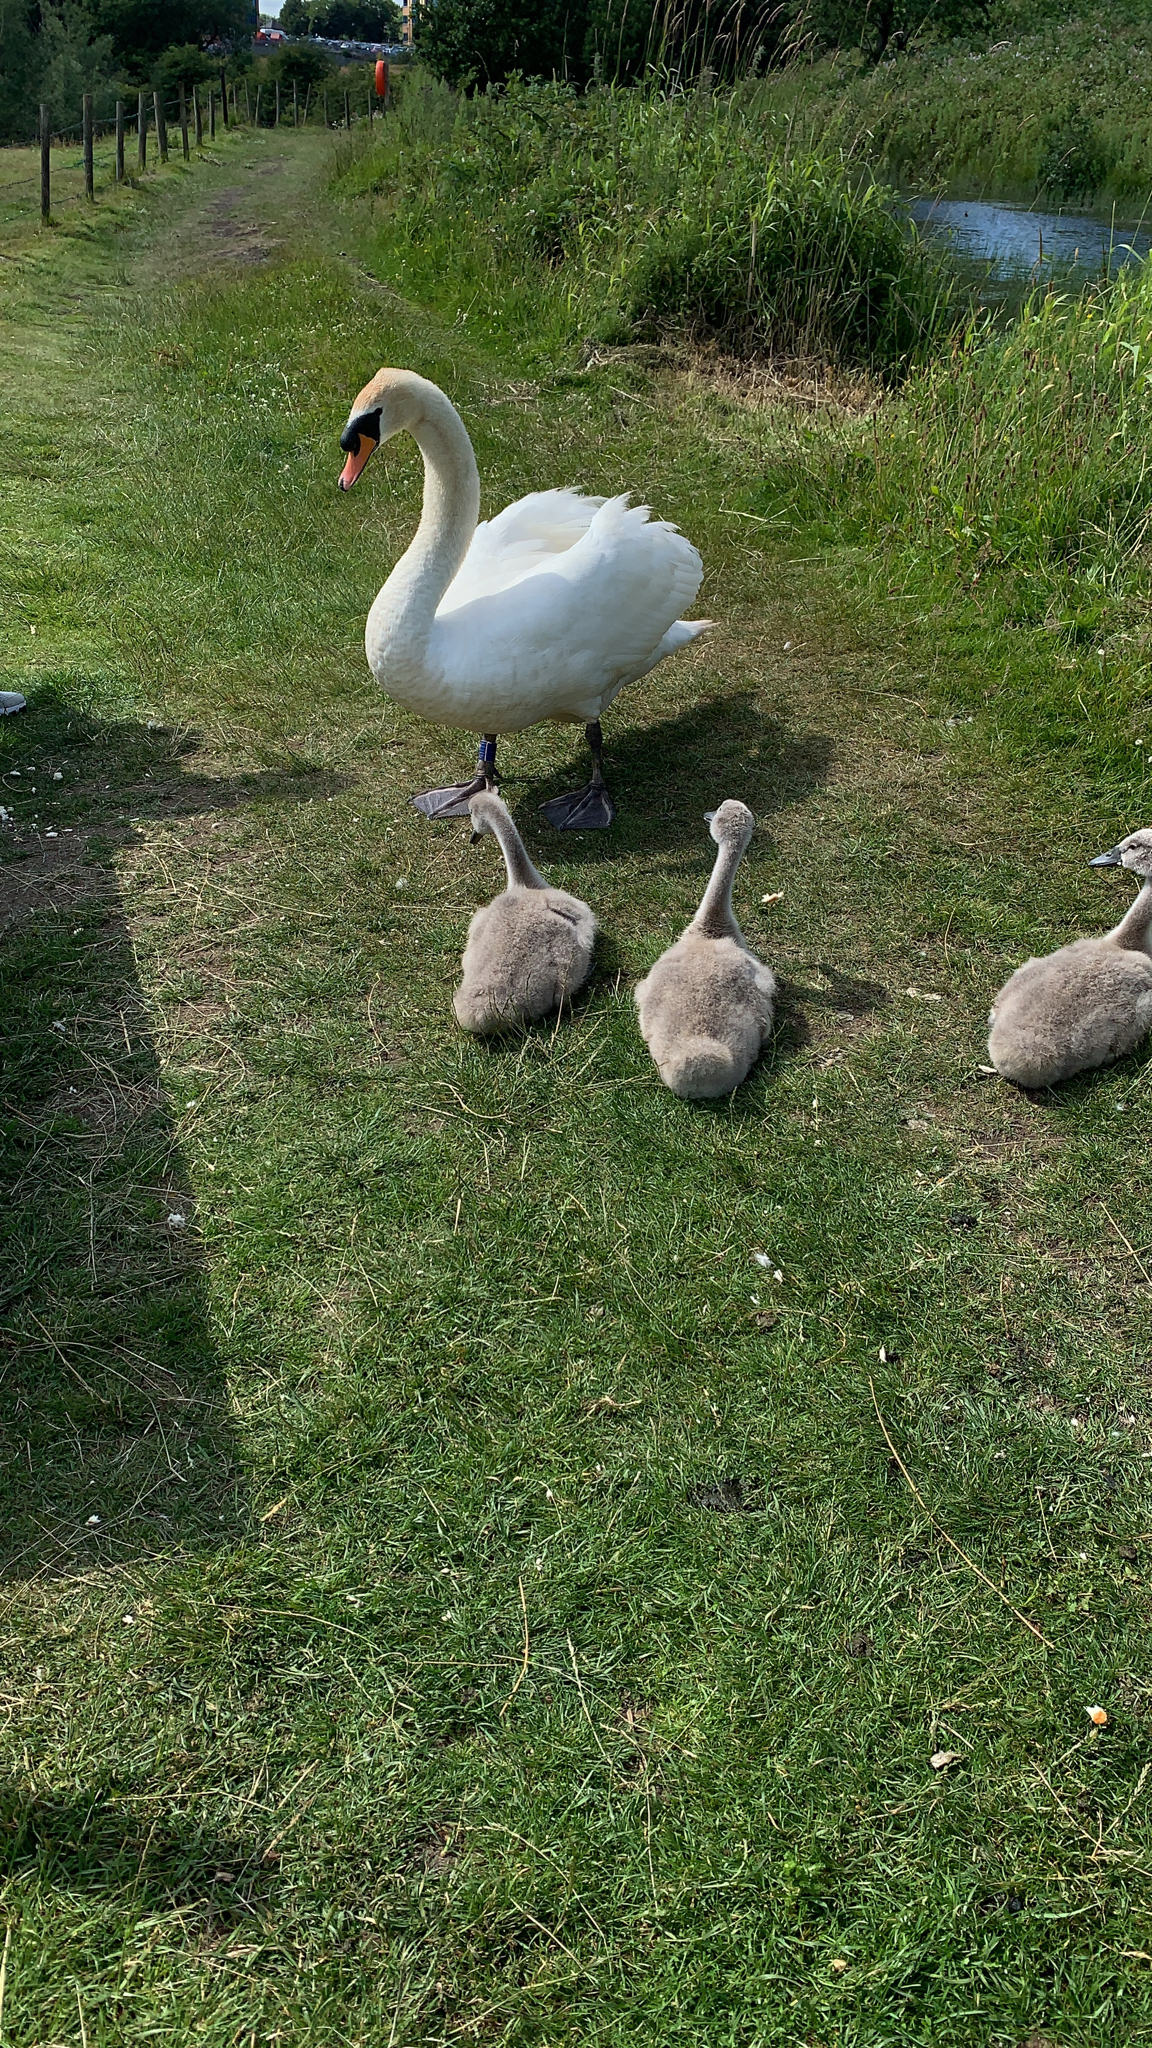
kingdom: Animalia
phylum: Chordata
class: Aves
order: Anseriformes
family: Anatidae
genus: Cygnus
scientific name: Cygnus olor
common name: Mute swan
